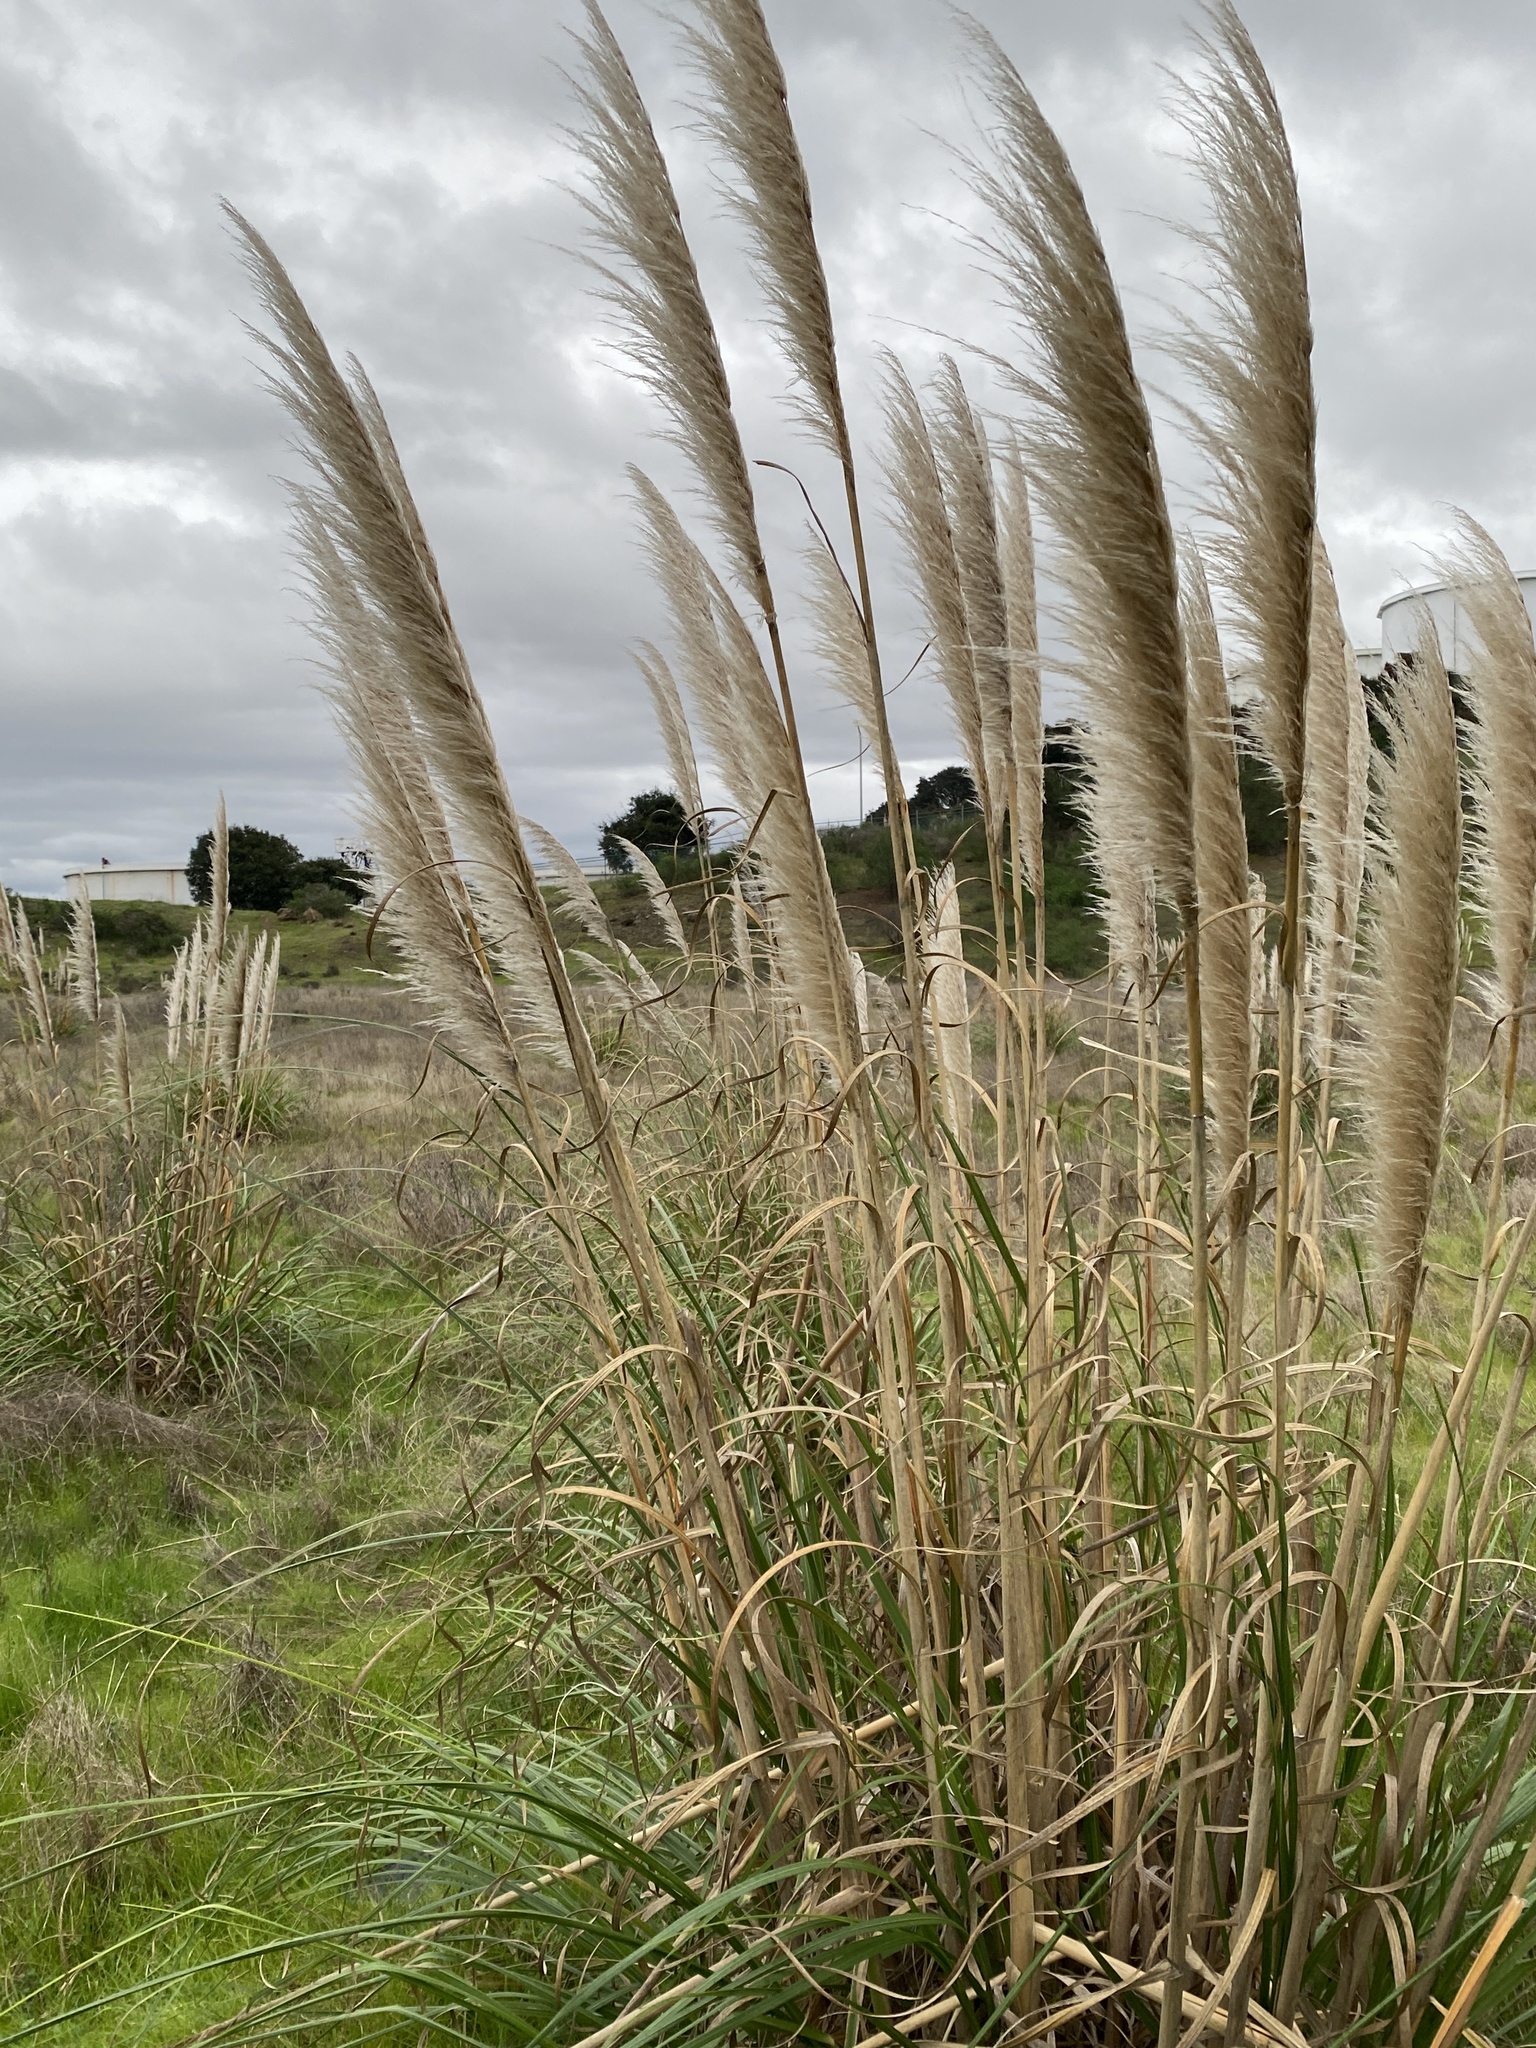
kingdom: Plantae
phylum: Tracheophyta
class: Liliopsida
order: Poales
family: Poaceae
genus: Cortaderia
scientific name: Cortaderia selloana
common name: Uruguayan pampas grass
